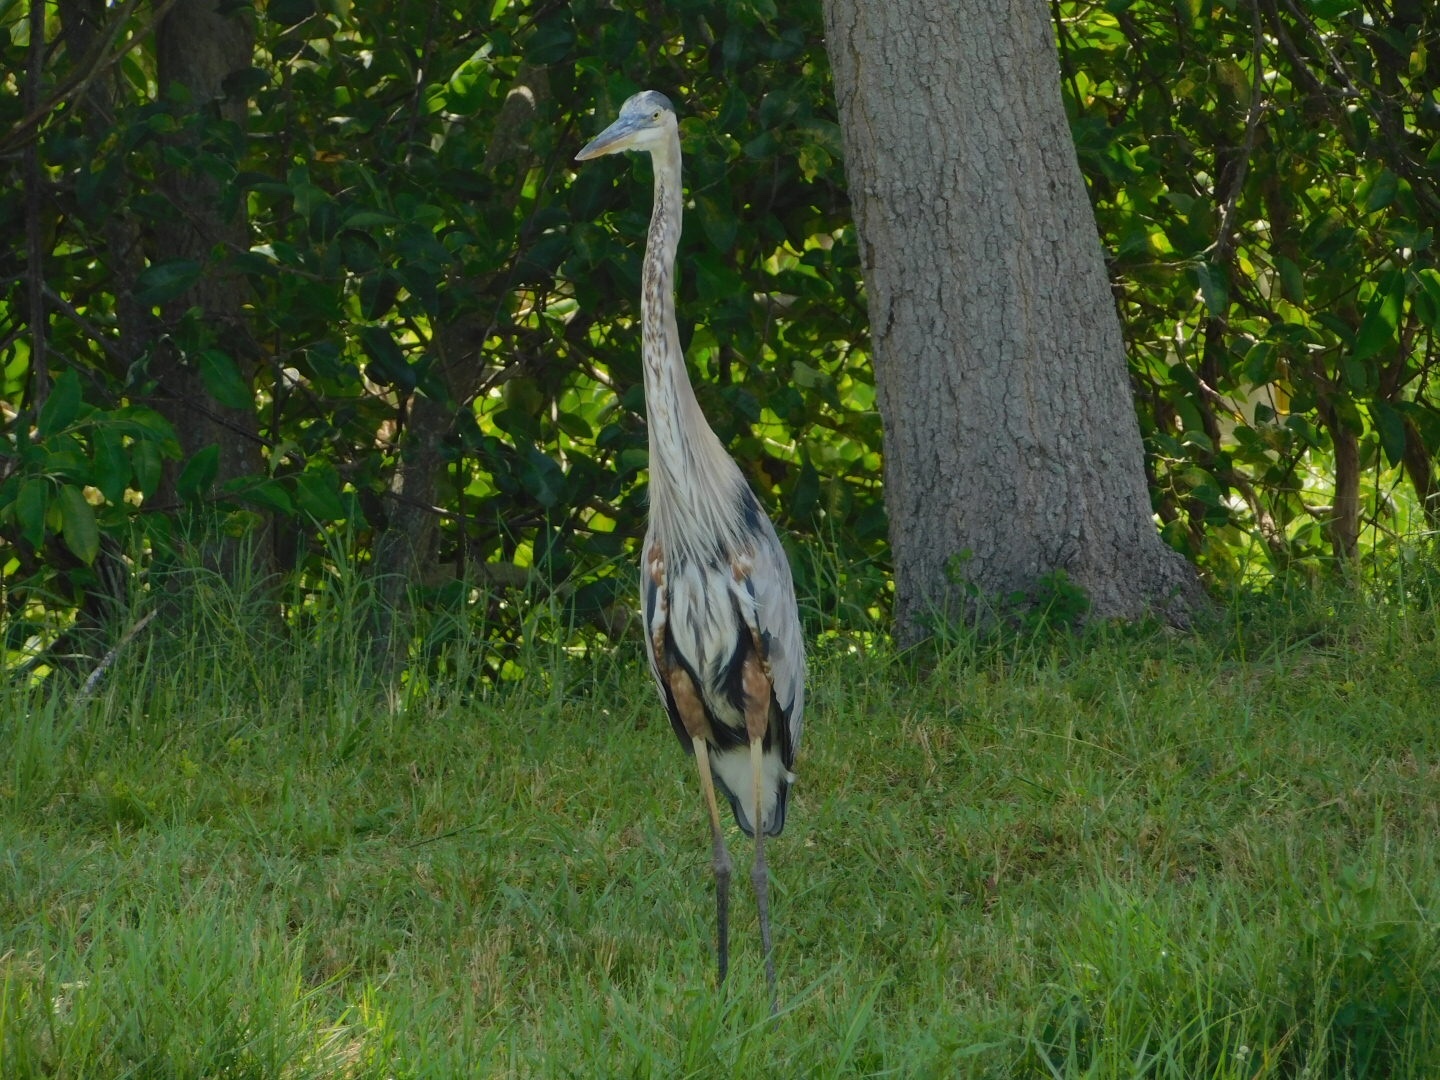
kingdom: Animalia
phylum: Chordata
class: Aves
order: Pelecaniformes
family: Ardeidae
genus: Ardea
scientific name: Ardea herodias
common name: Great blue heron
